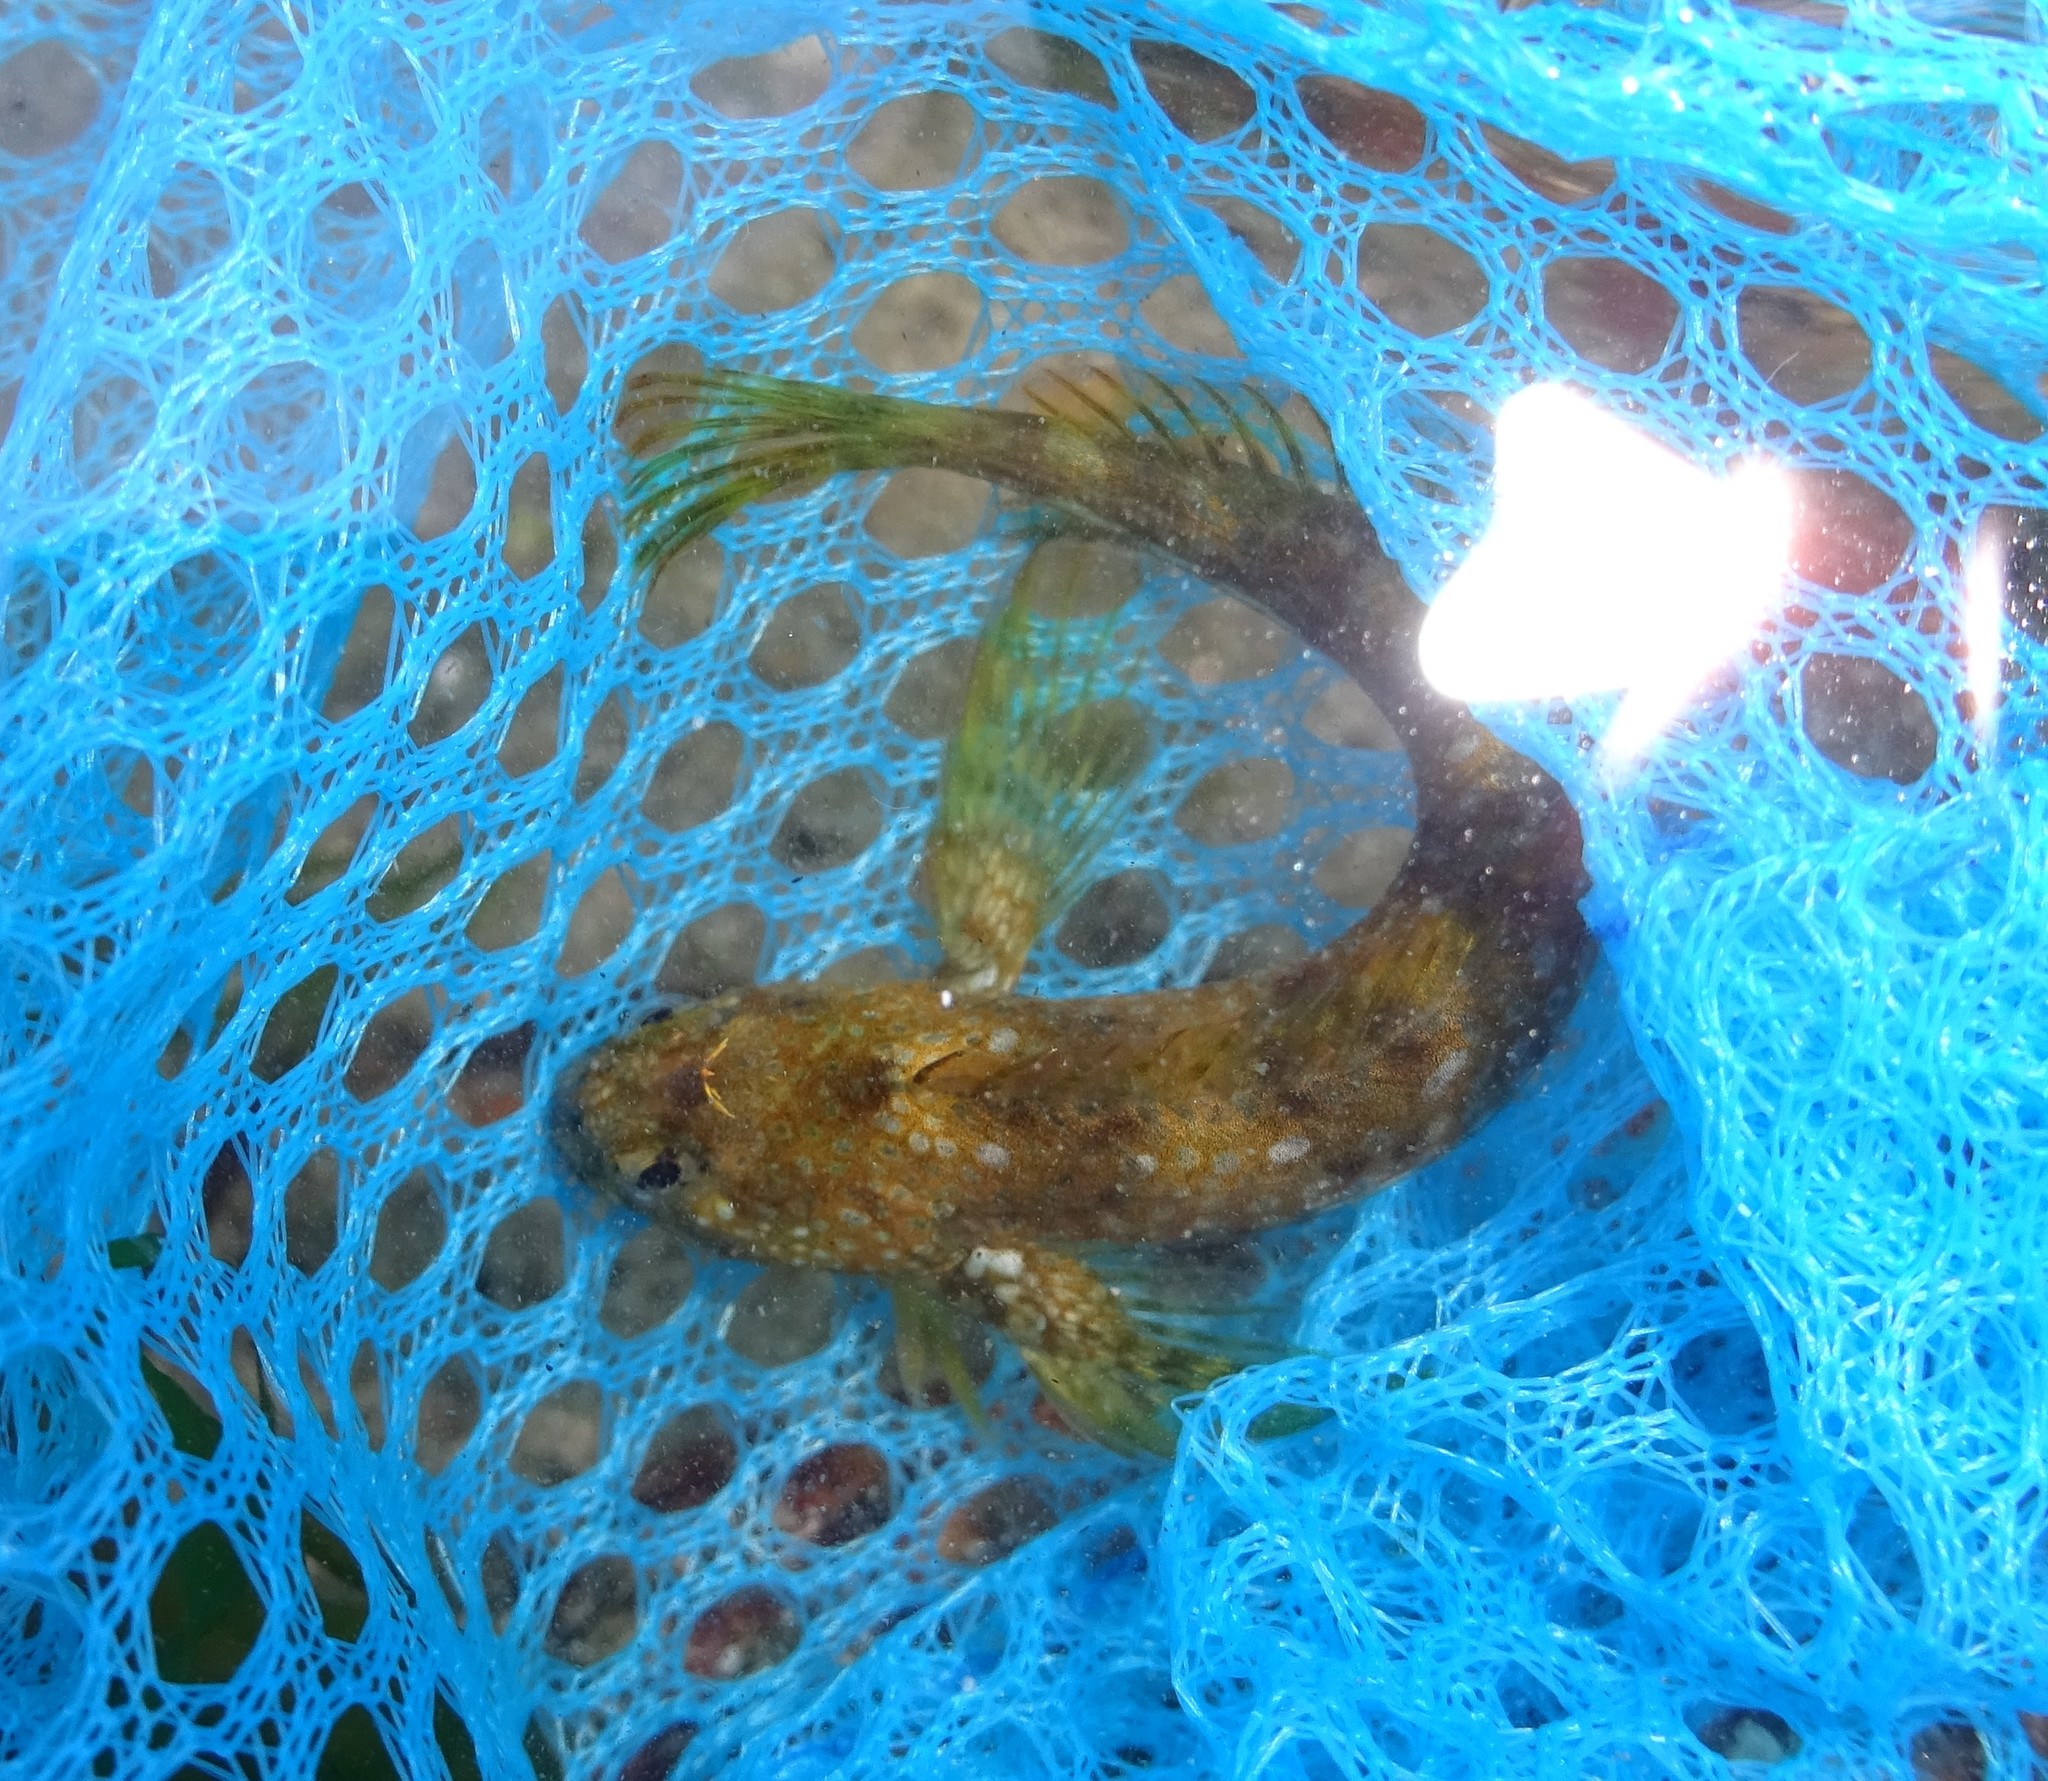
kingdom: Animalia
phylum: Chordata
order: Perciformes
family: Blenniidae
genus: Coryphoblennius
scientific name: Coryphoblennius galerita
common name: Montagu's blenny
